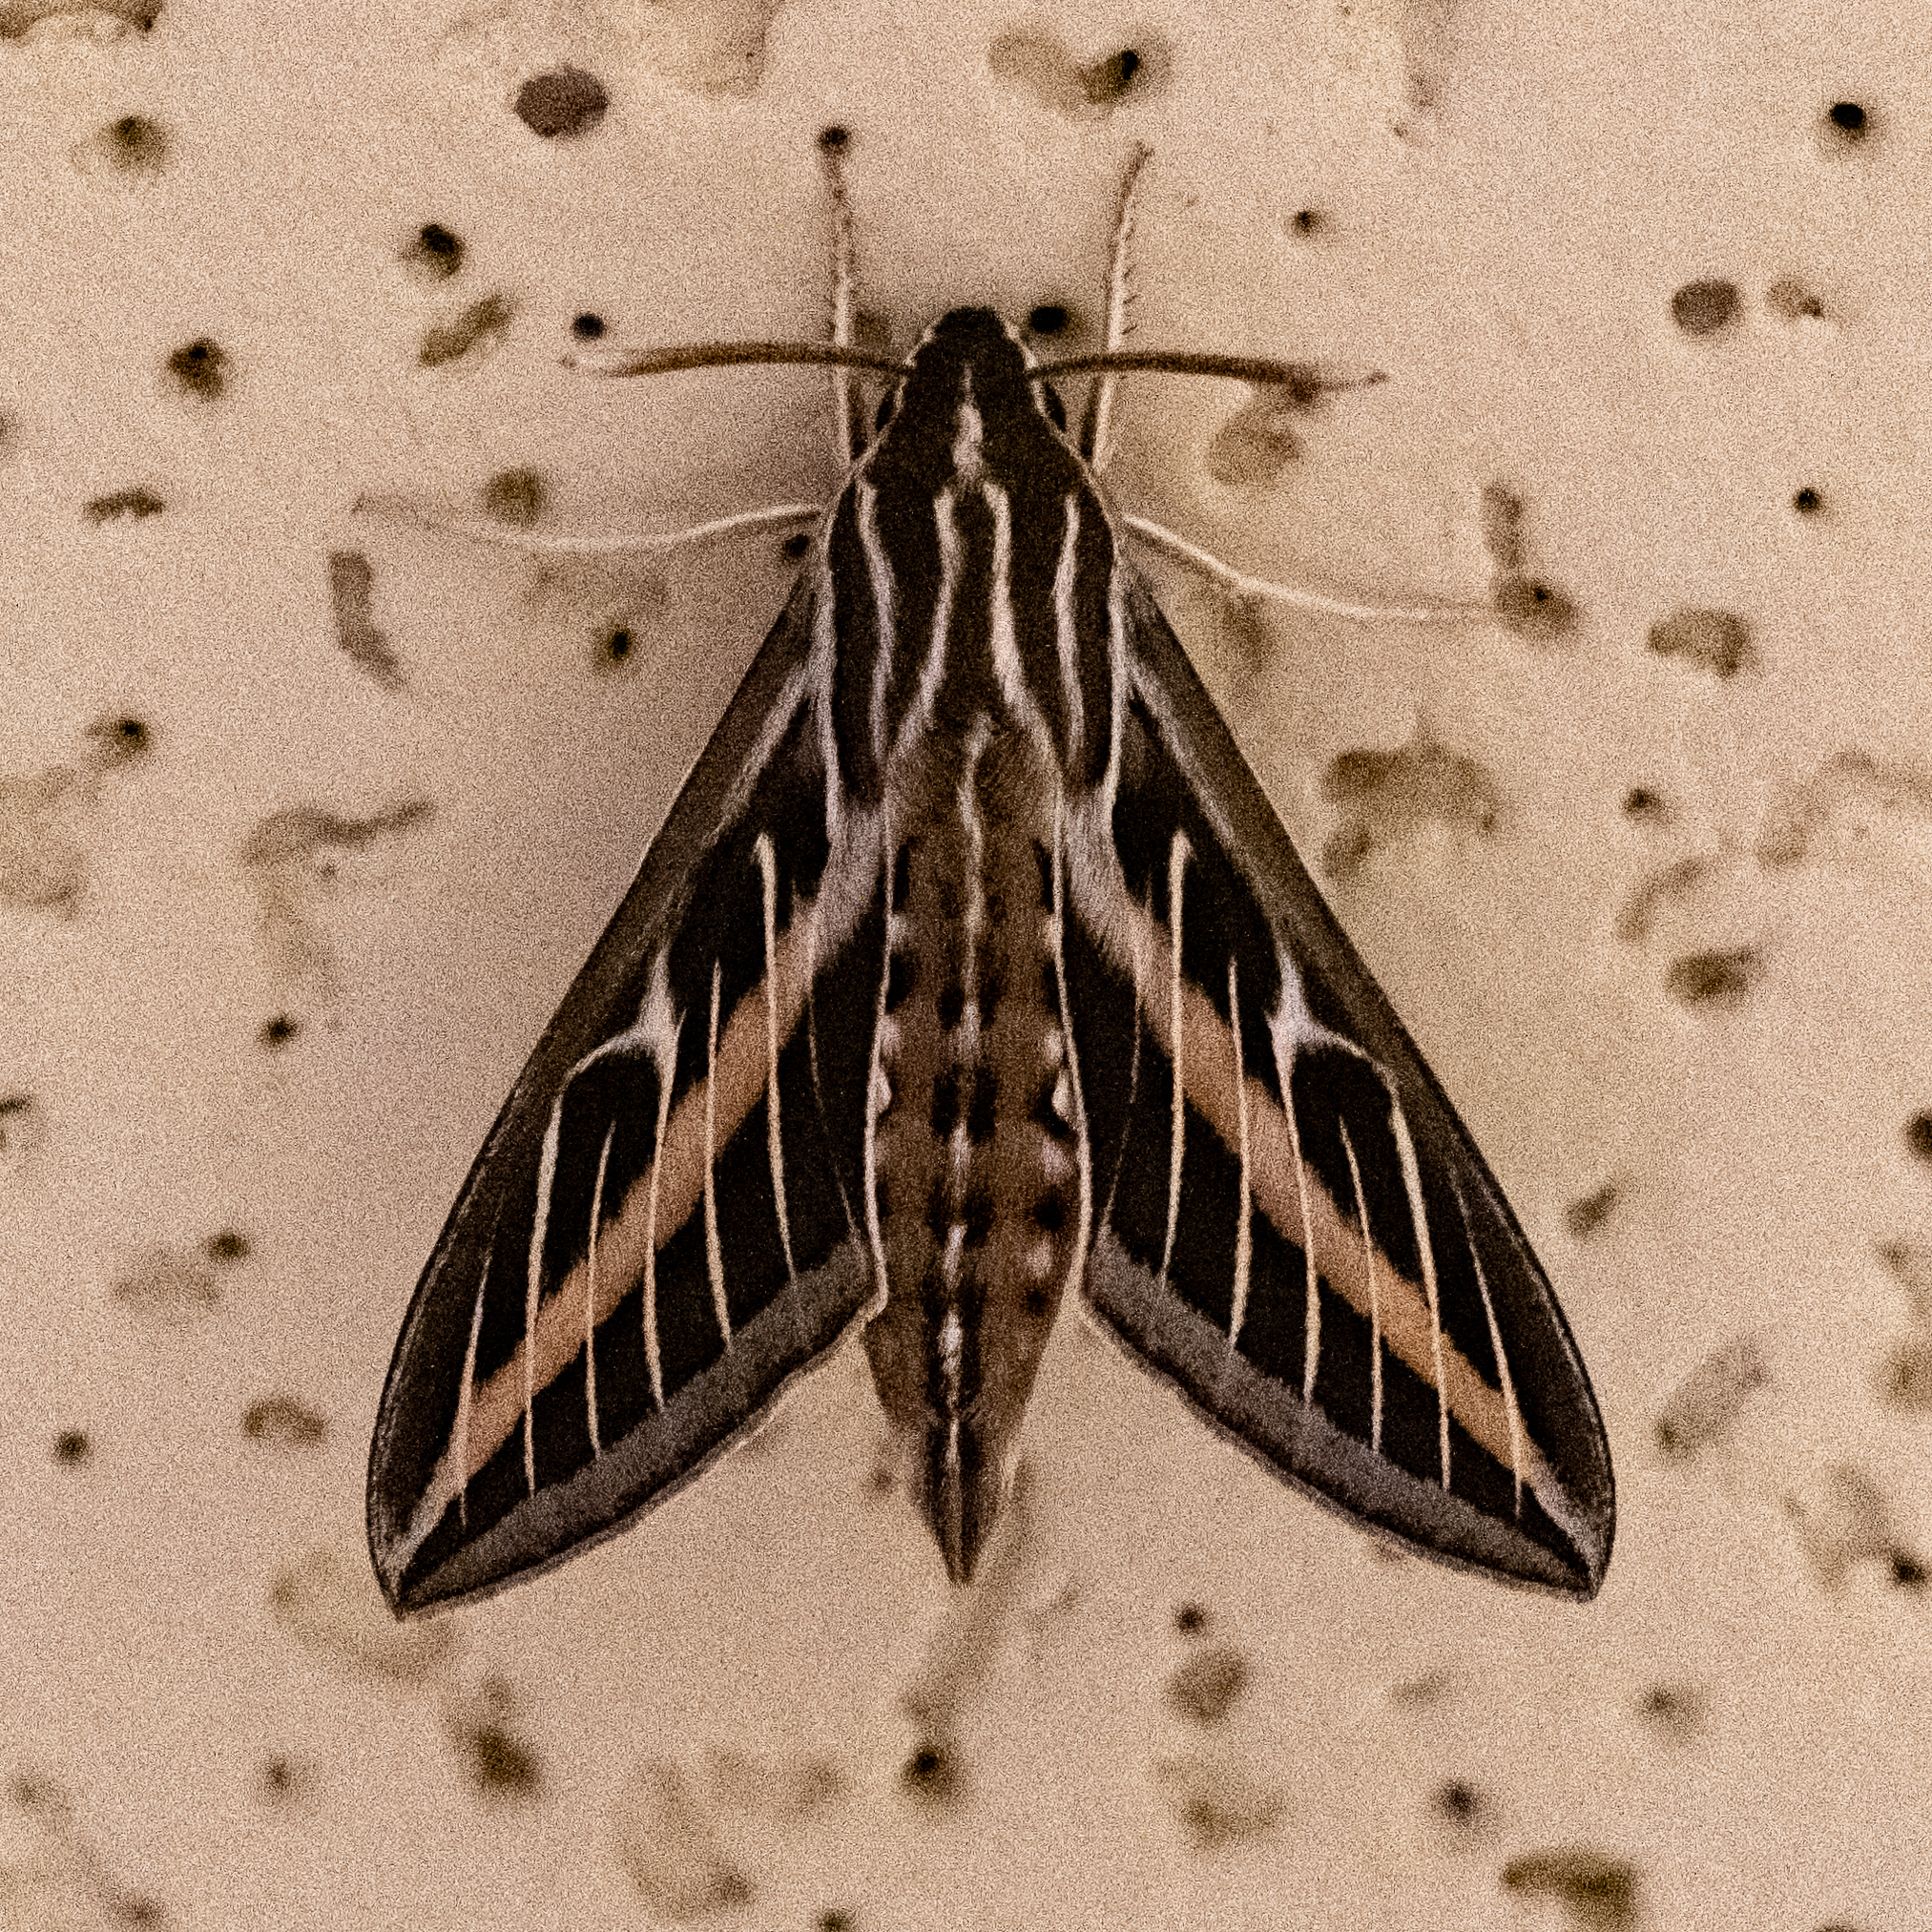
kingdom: Animalia
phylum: Arthropoda
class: Insecta
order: Lepidoptera
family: Sphingidae
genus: Hyles
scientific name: Hyles lineata
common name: White-lined sphinx
